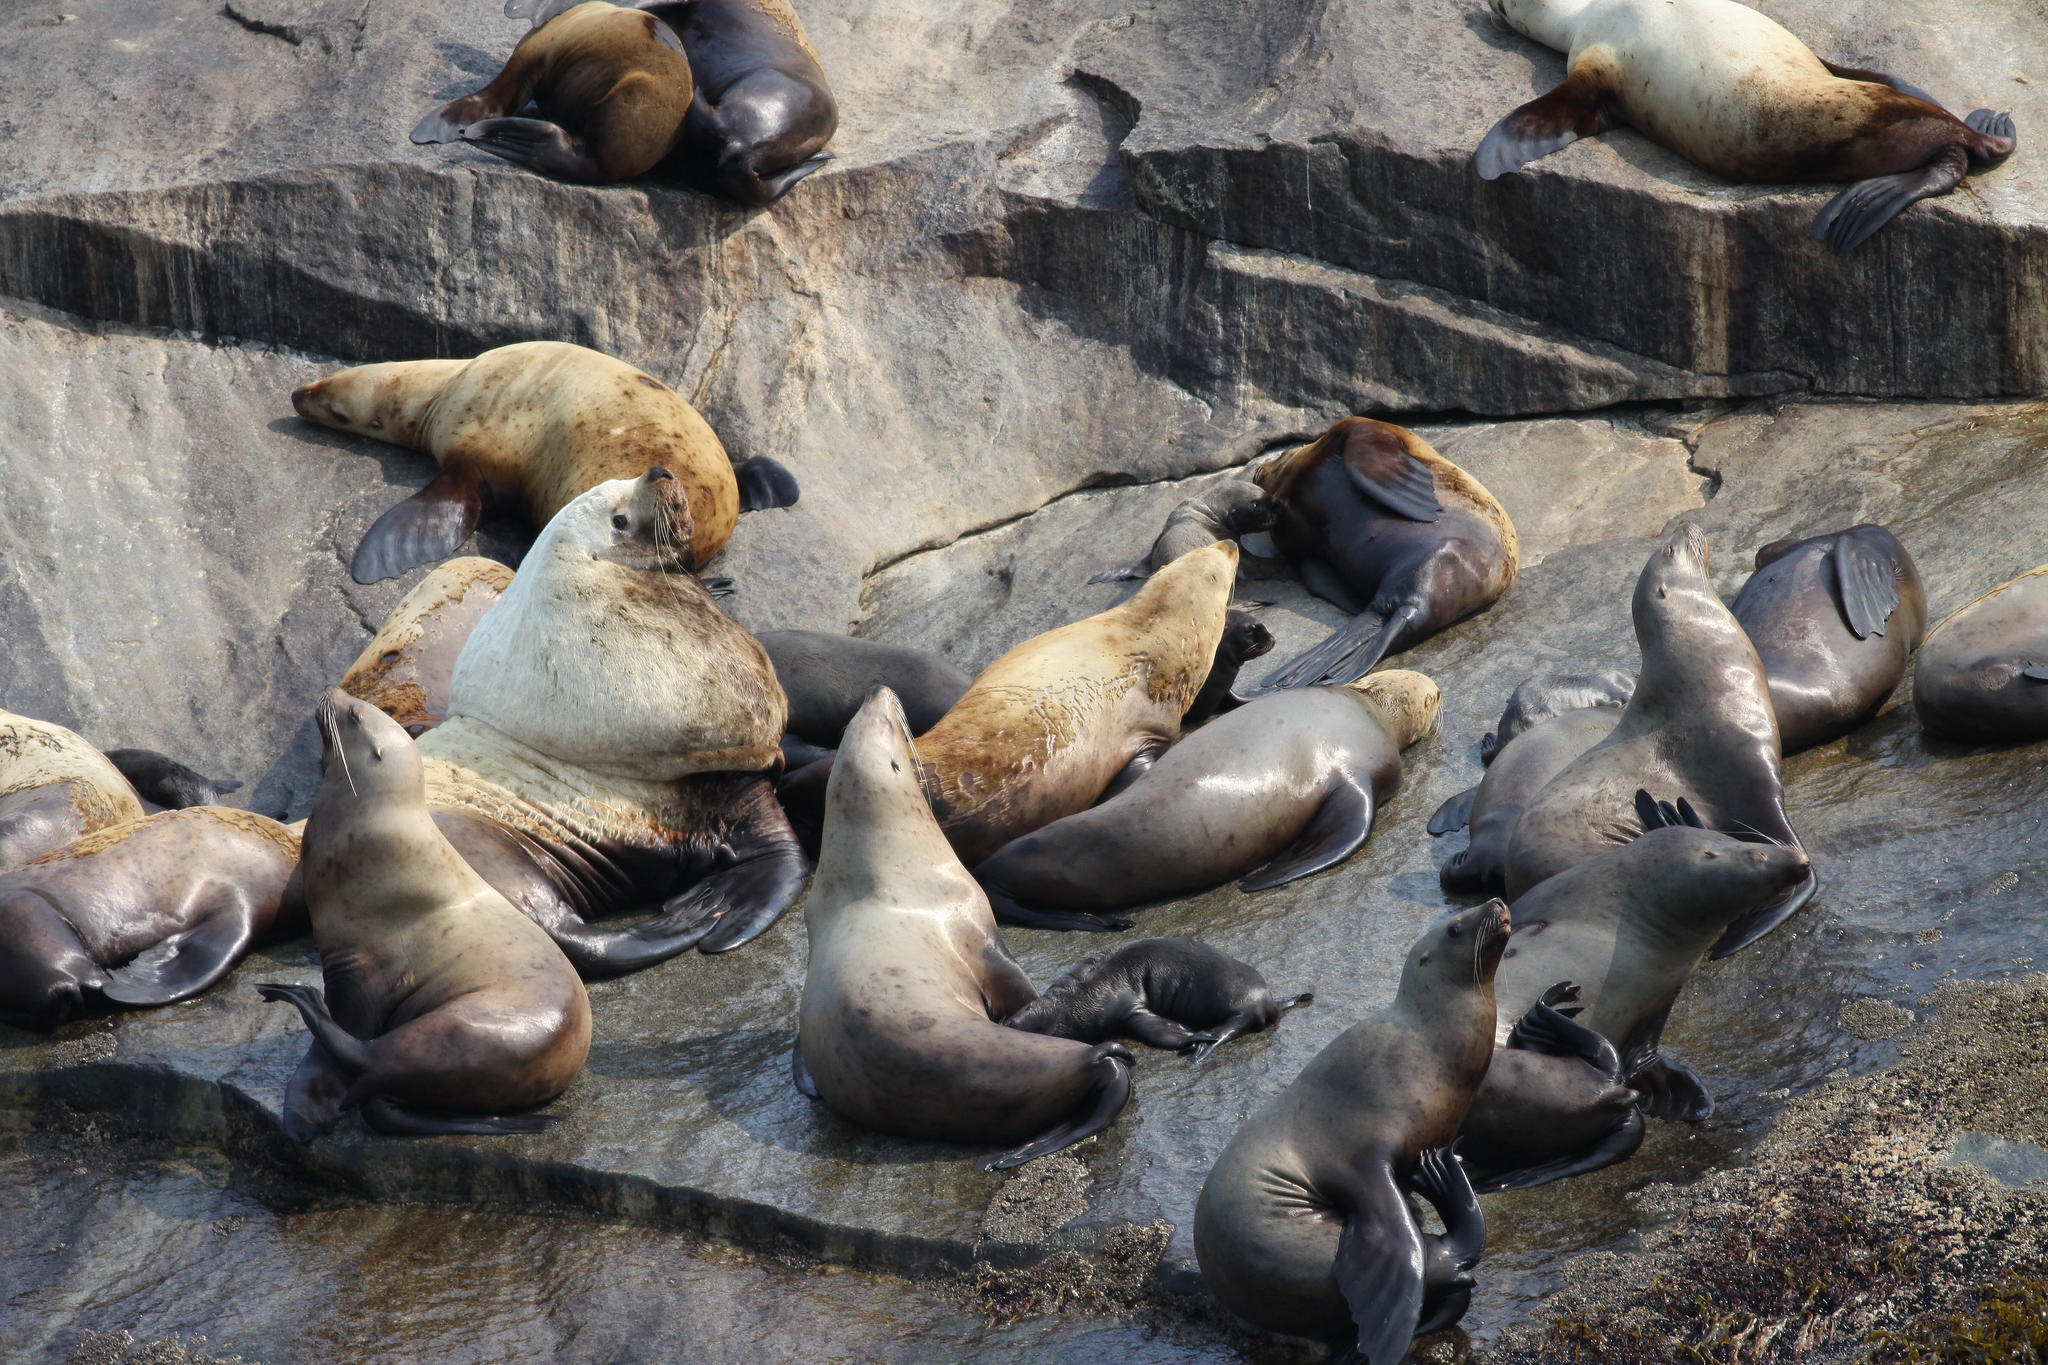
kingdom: Animalia
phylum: Chordata
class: Mammalia
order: Carnivora
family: Otariidae
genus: Eumetopias
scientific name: Eumetopias jubatus
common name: Steller sea lion
